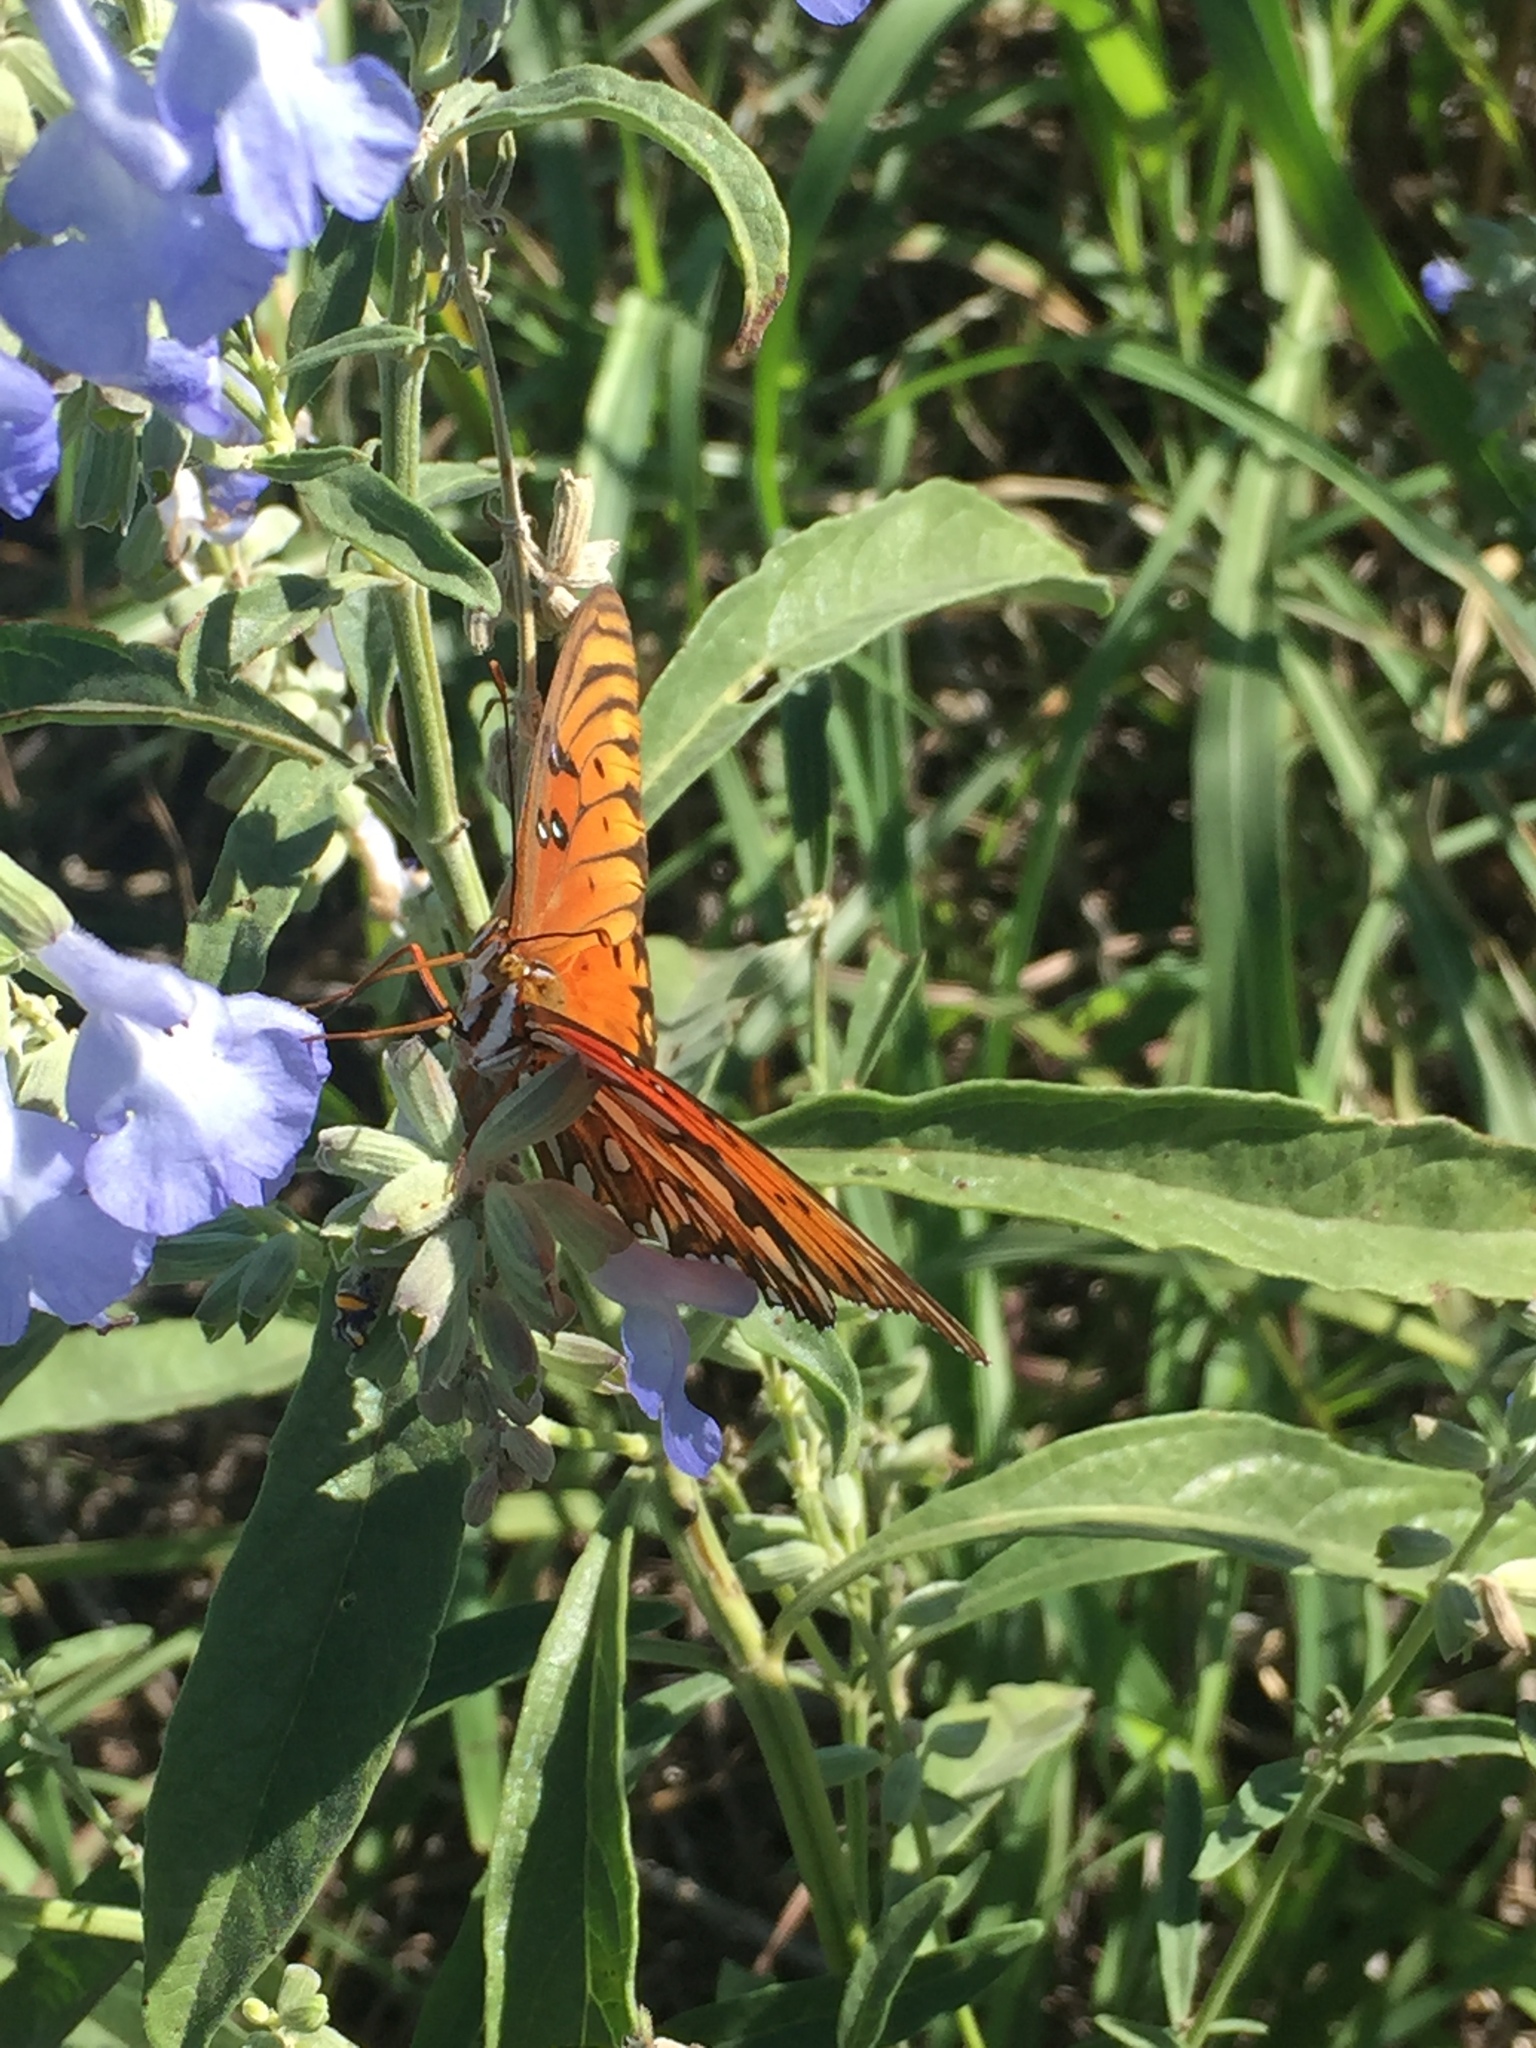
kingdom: Animalia
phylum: Arthropoda
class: Insecta
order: Lepidoptera
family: Nymphalidae
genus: Dione
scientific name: Dione vanillae
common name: Gulf fritillary
